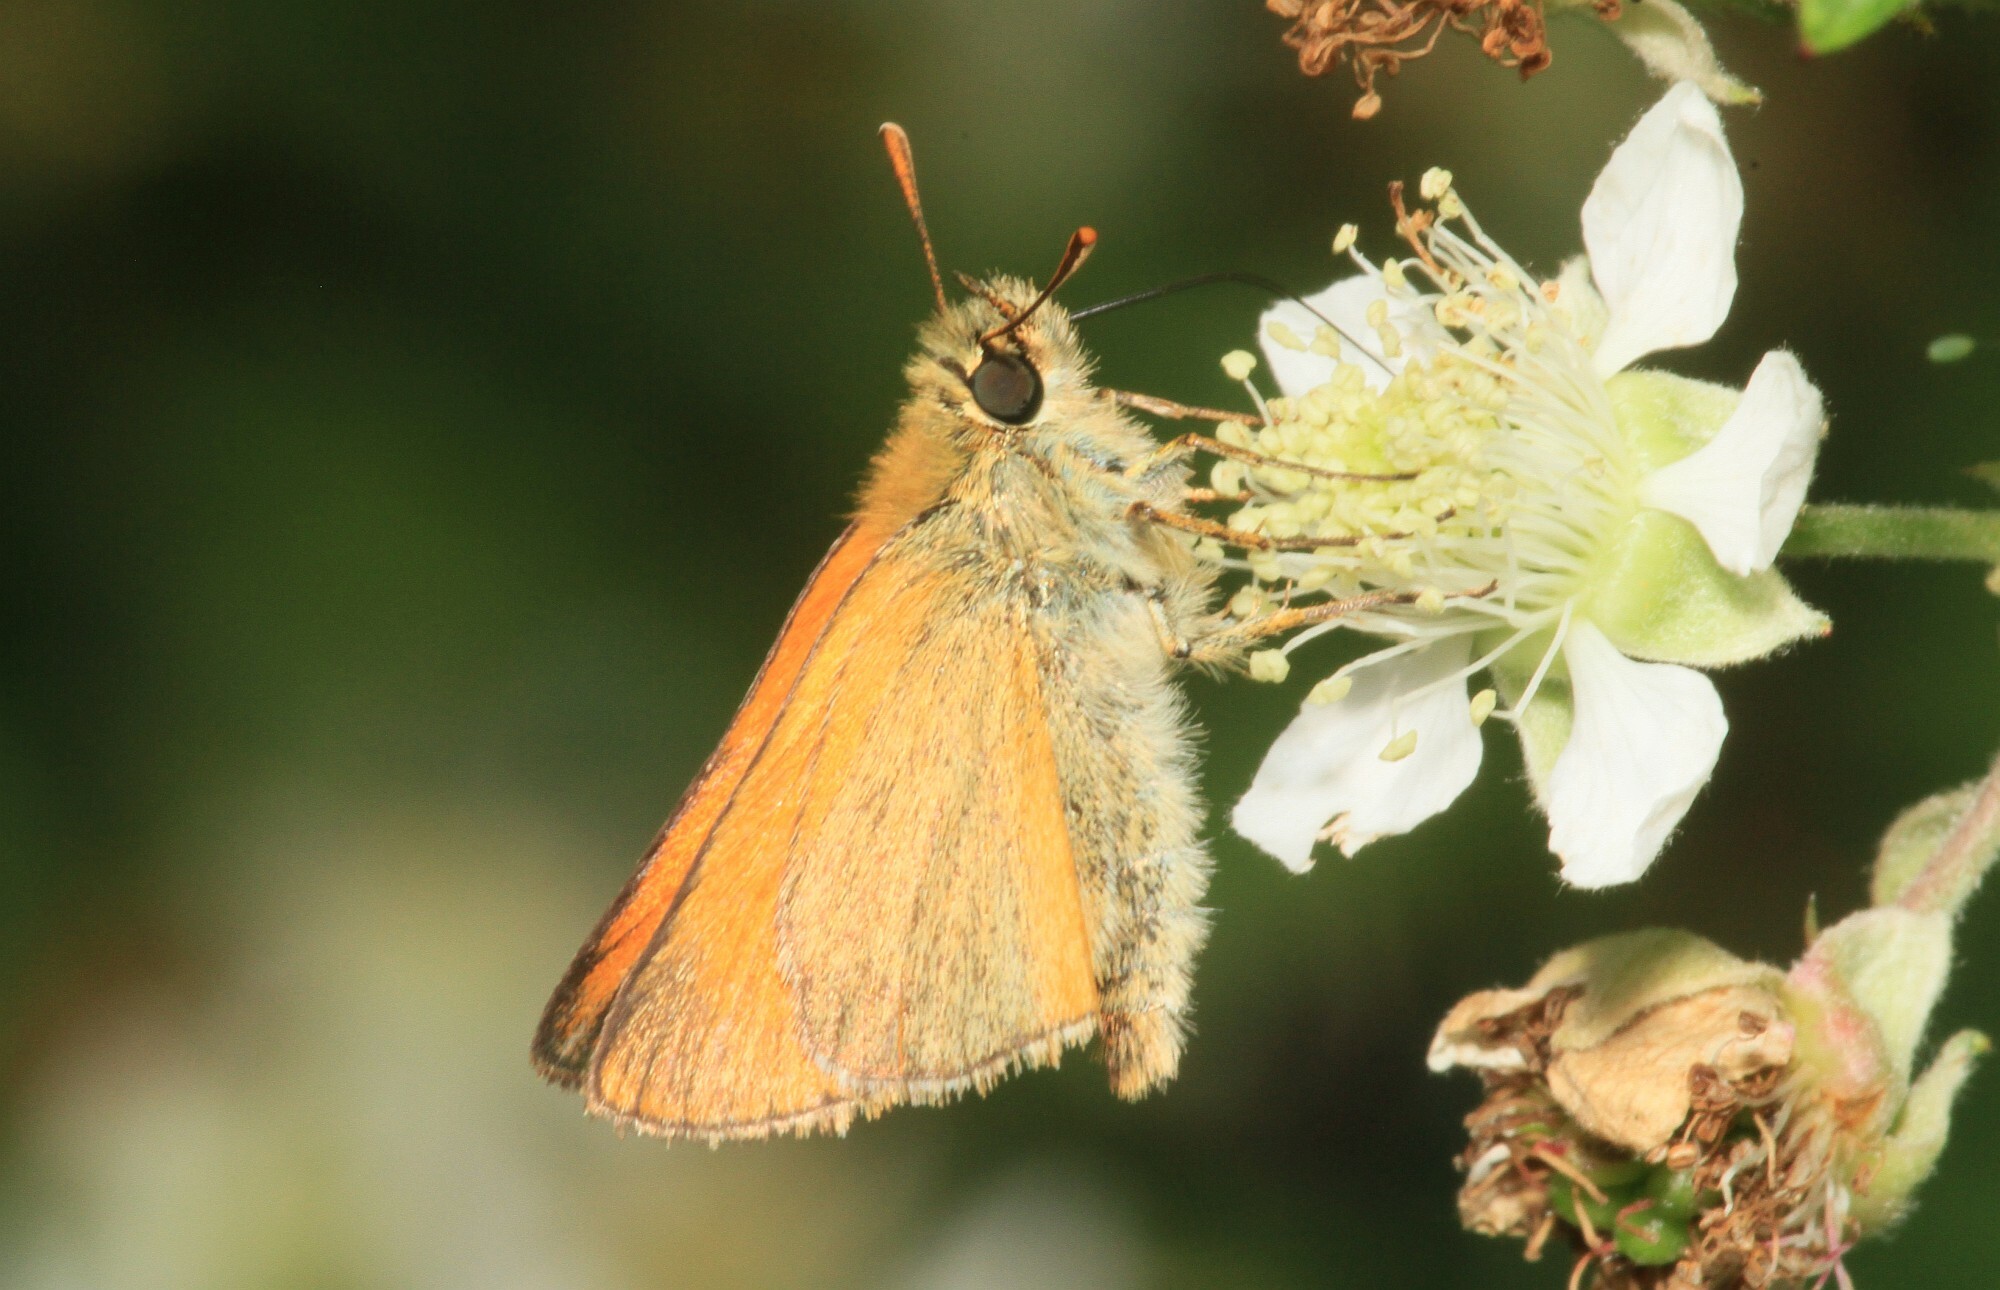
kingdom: Animalia
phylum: Arthropoda
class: Insecta
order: Lepidoptera
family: Hesperiidae
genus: Thymelicus
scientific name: Thymelicus sylvestris
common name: Small skipper
